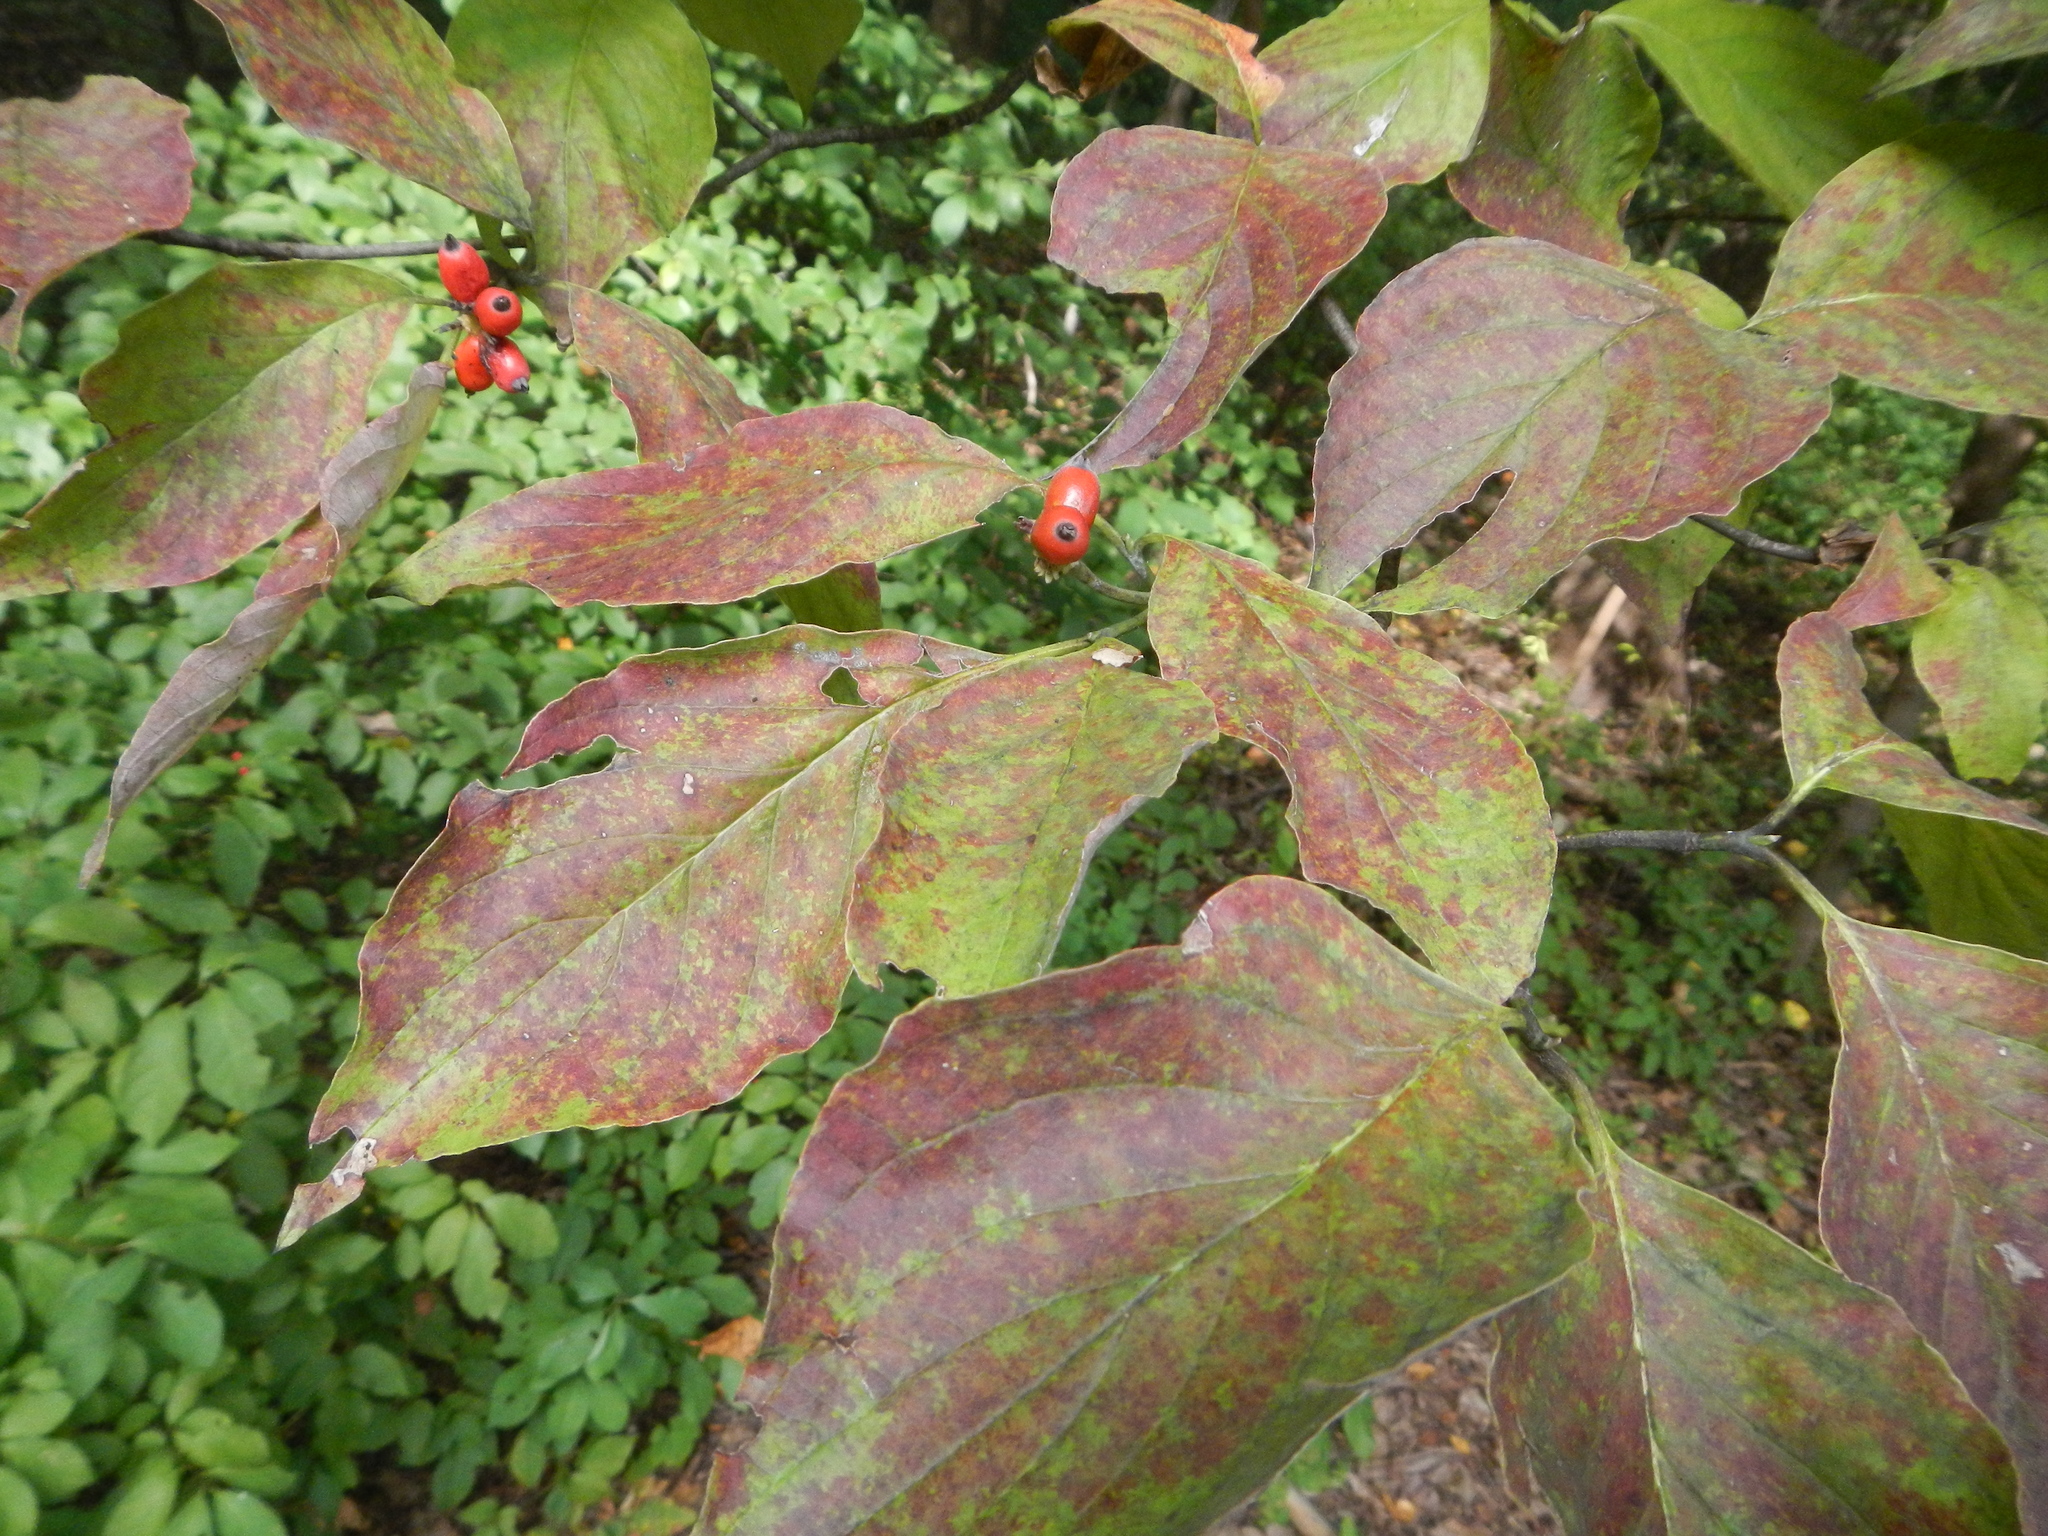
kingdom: Plantae
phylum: Tracheophyta
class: Magnoliopsida
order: Cornales
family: Cornaceae
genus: Cornus
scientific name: Cornus florida
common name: Flowering dogwood
